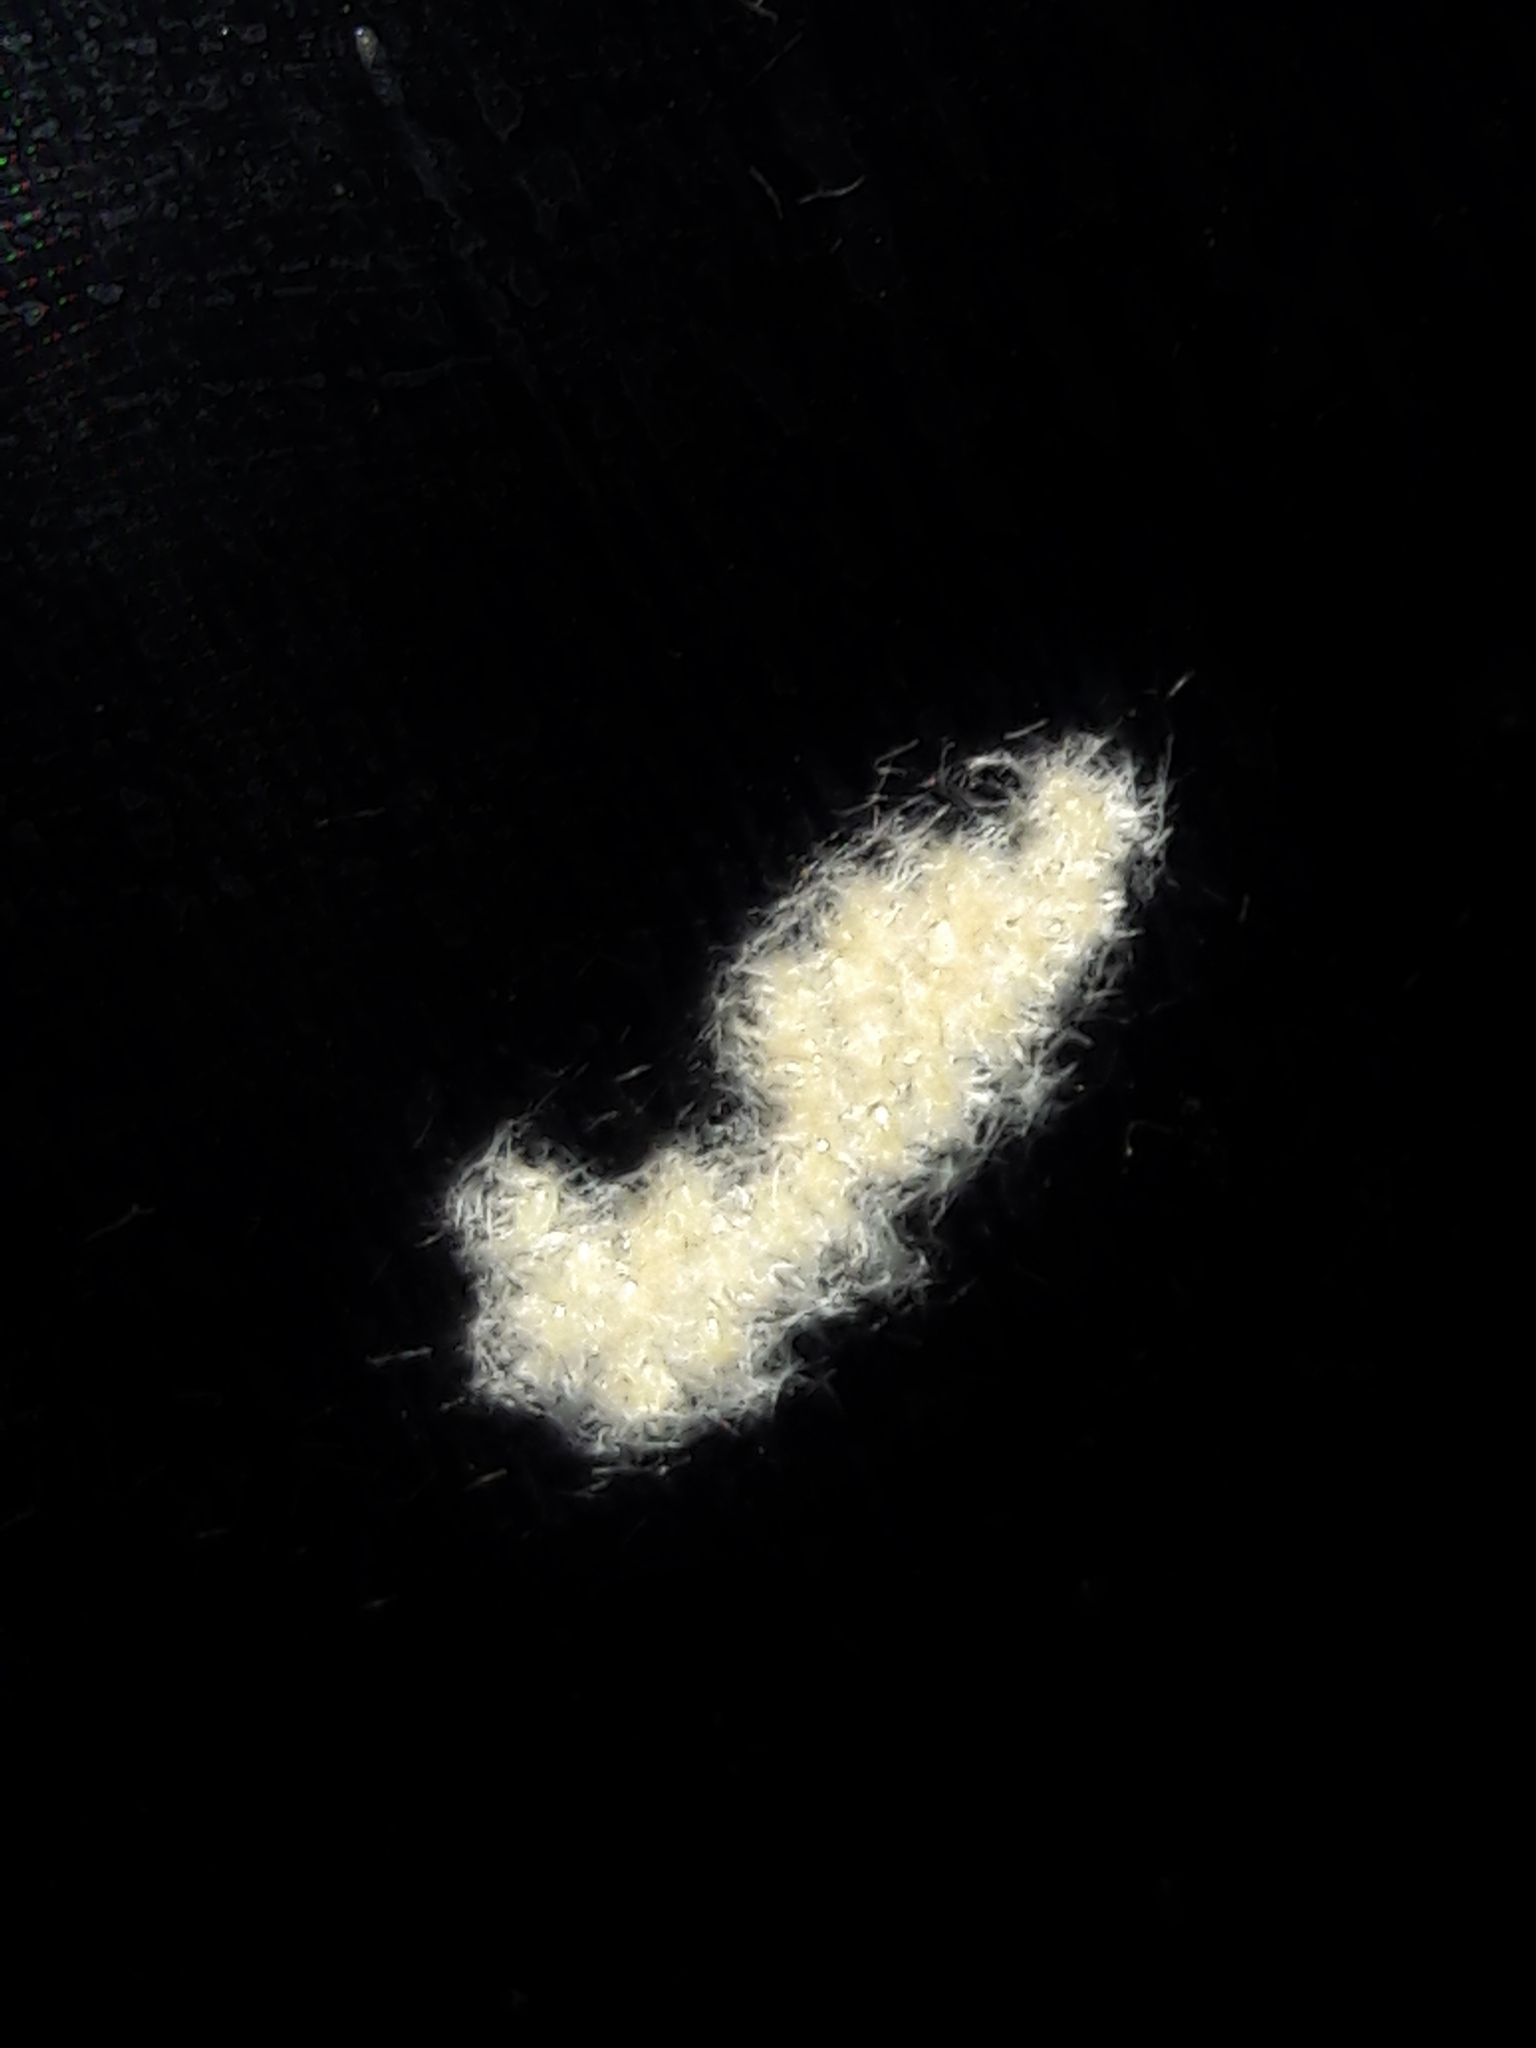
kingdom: Animalia
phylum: Arthropoda
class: Insecta
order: Lepidoptera
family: Megalopygidae
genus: Podalia
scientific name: Podalia
